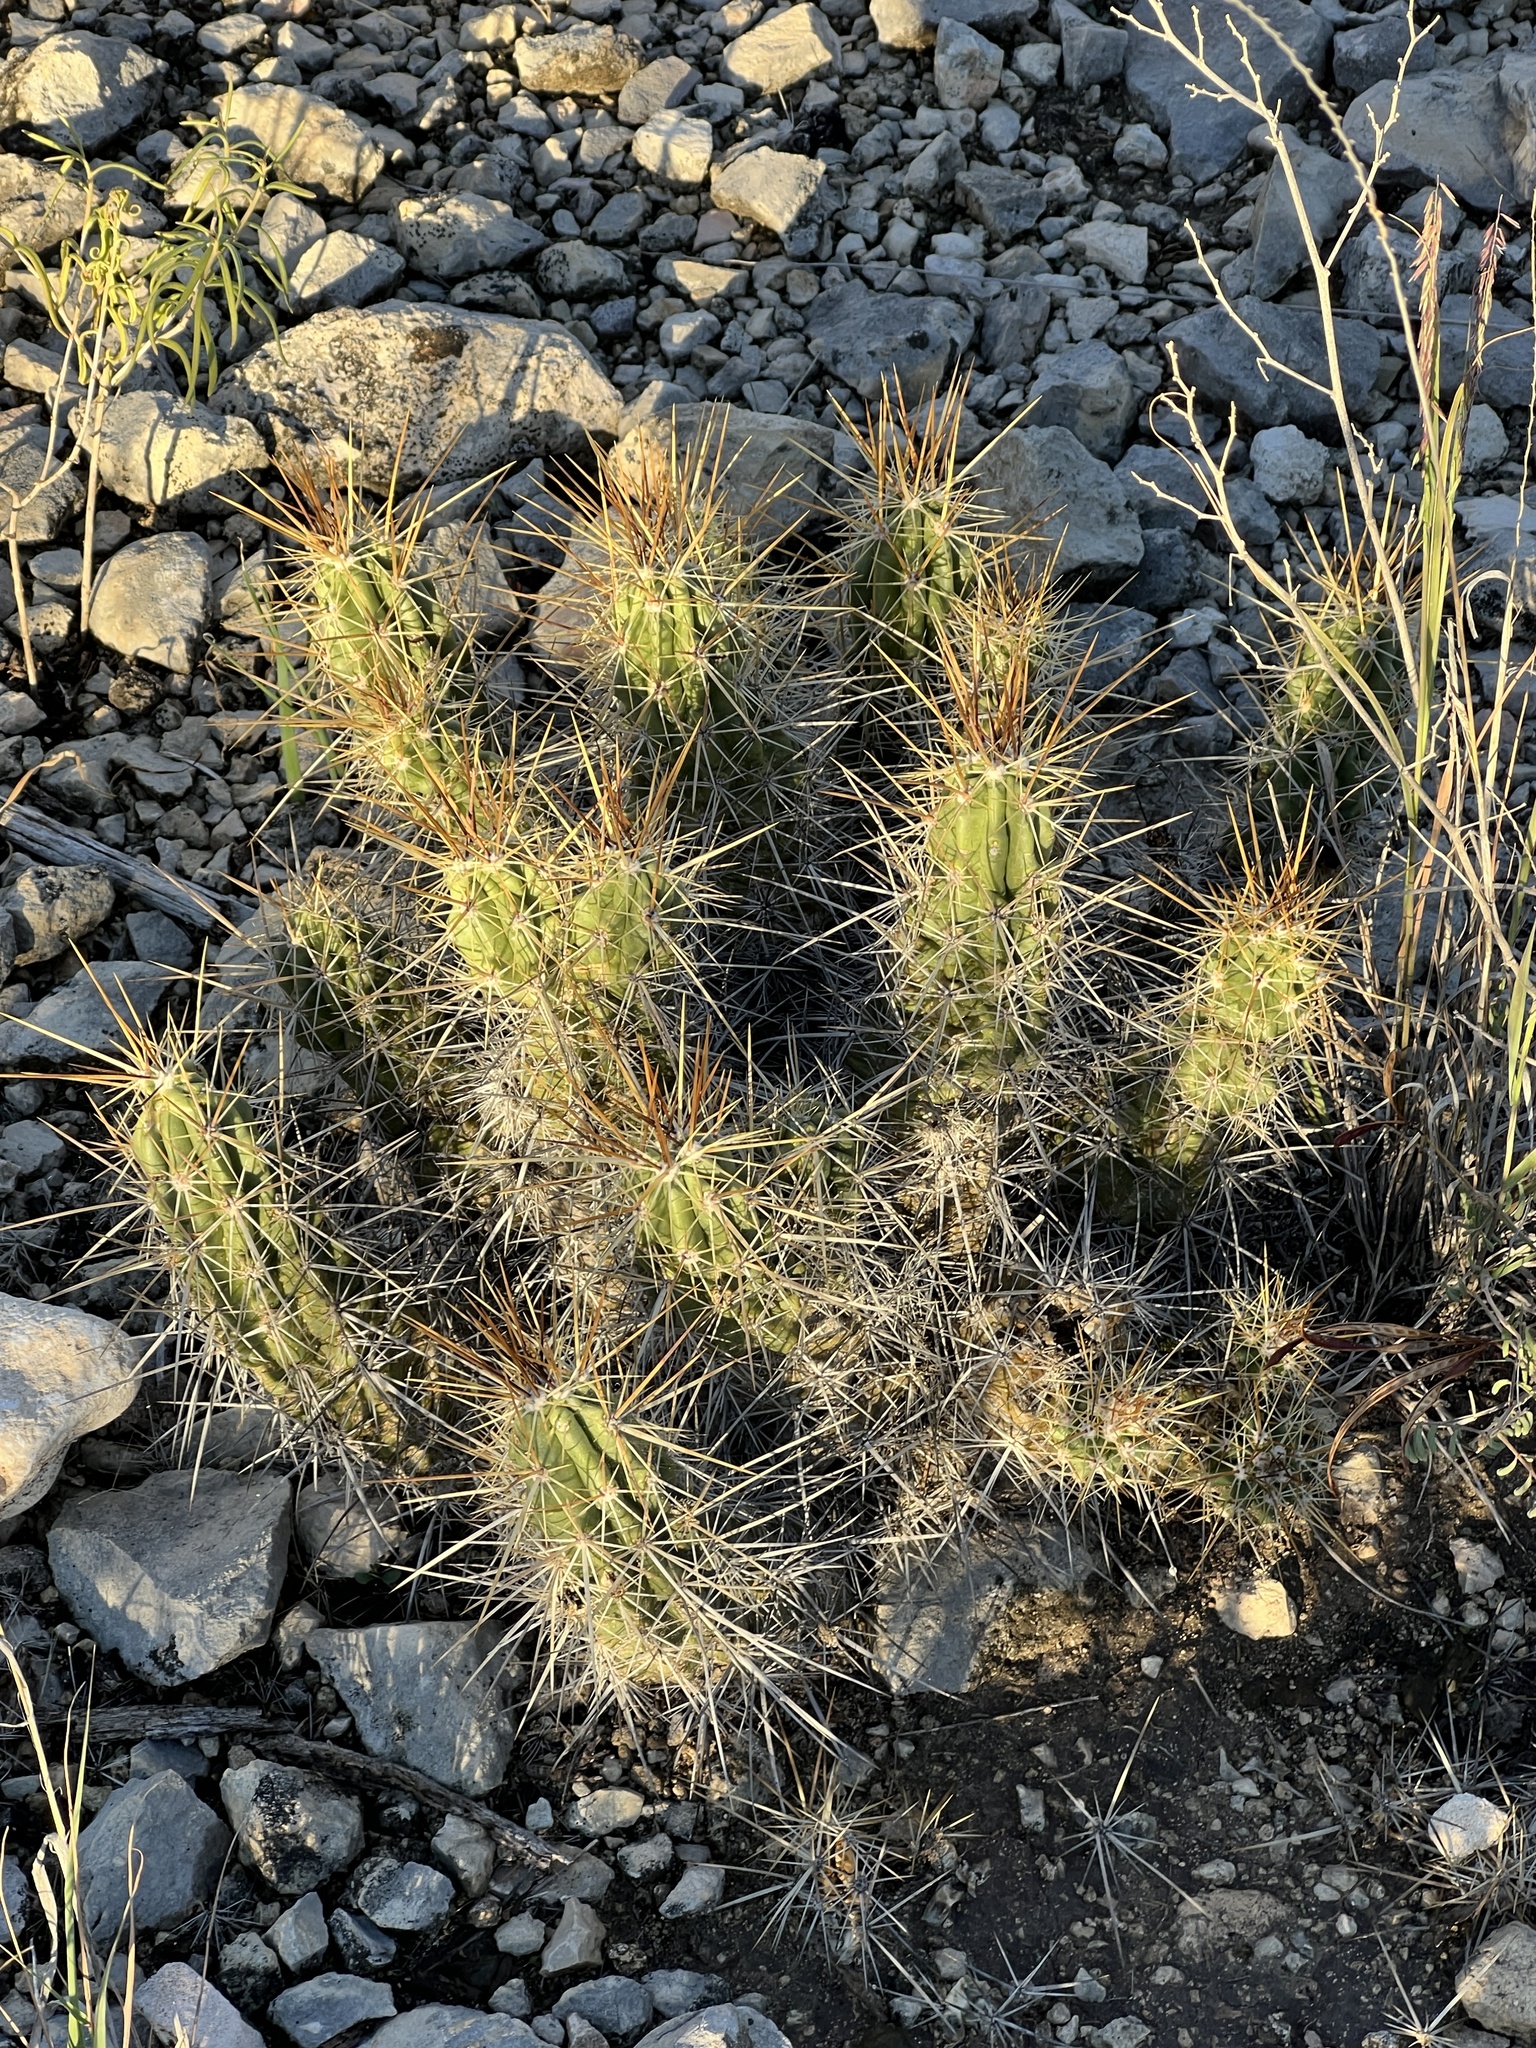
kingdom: Plantae
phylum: Tracheophyta
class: Magnoliopsida
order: Caryophyllales
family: Cactaceae
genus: Echinocereus
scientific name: Echinocereus enneacanthus
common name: Pitaya
